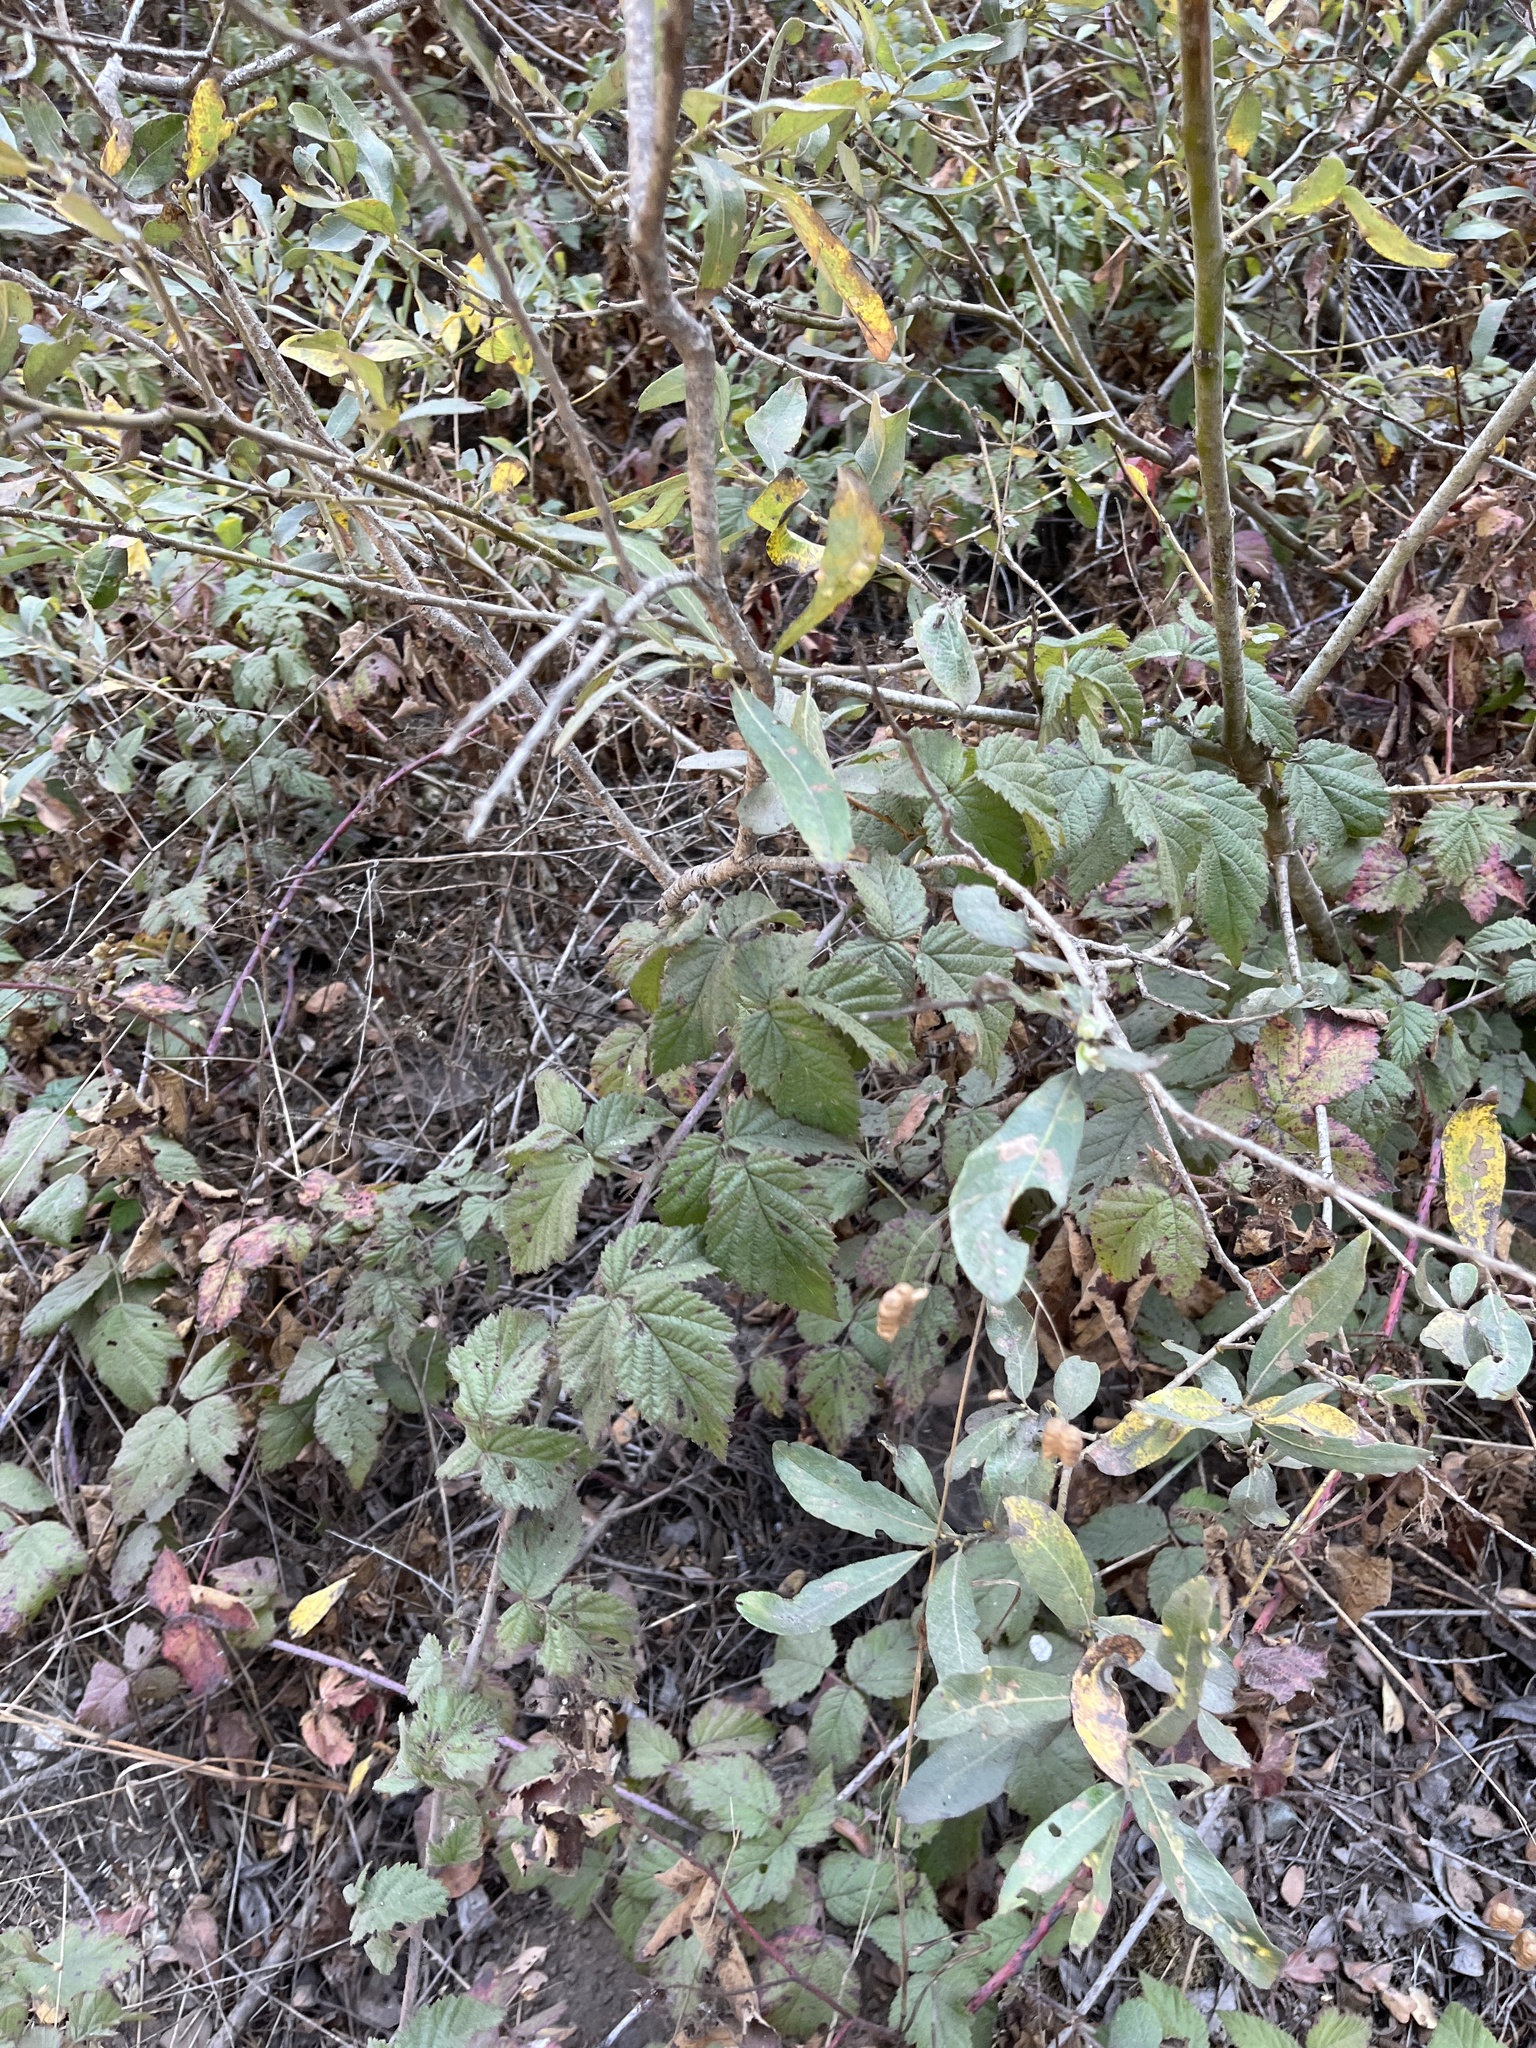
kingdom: Plantae
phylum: Tracheophyta
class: Magnoliopsida
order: Rosales
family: Rosaceae
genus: Rubus
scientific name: Rubus ursinus
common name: Pacific blackberry
